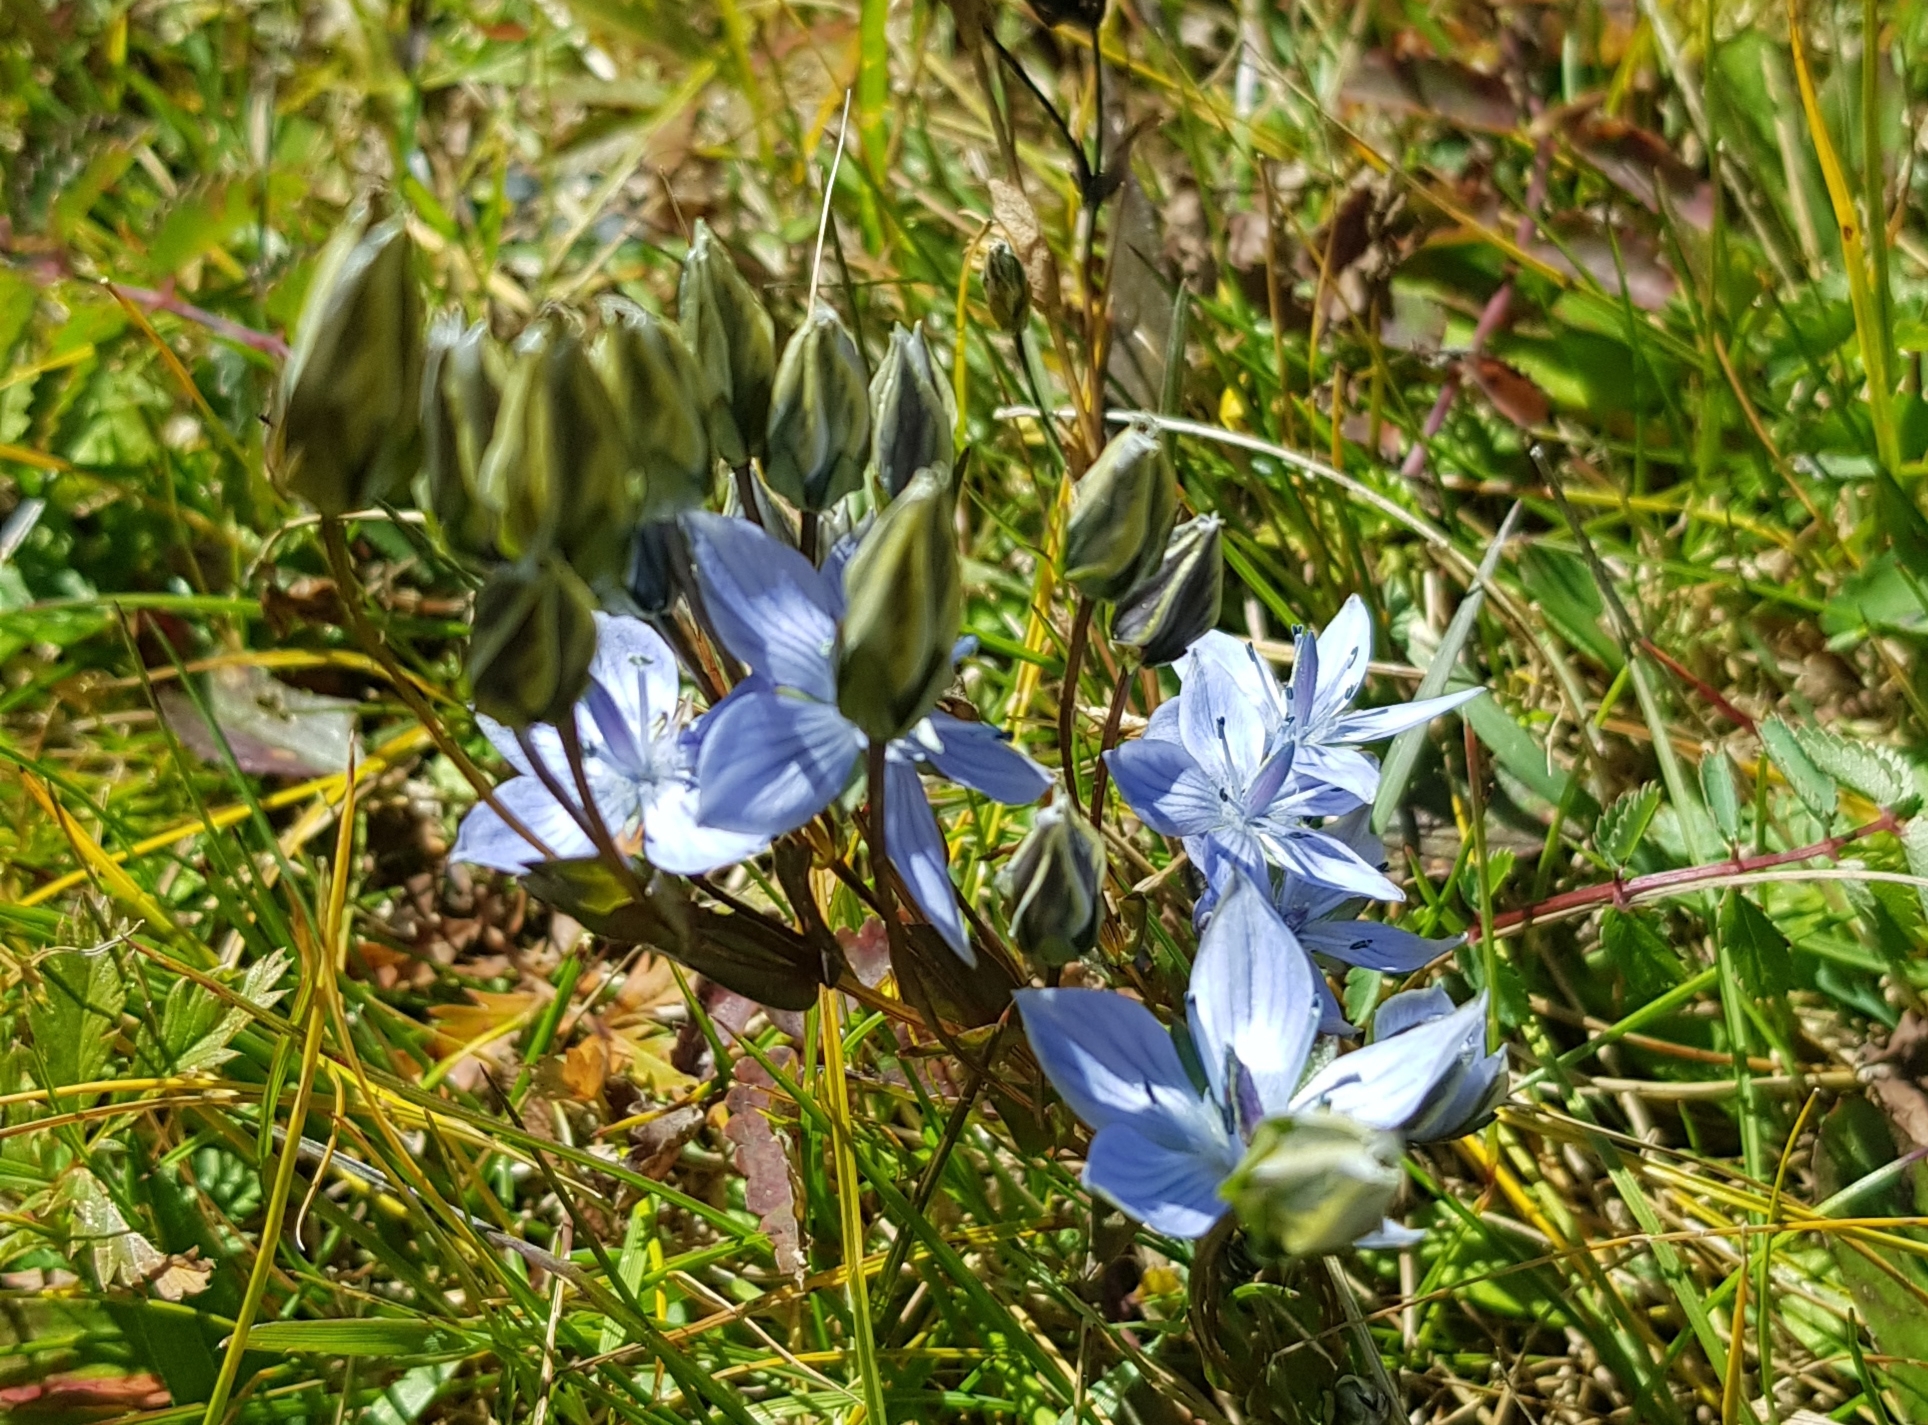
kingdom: Plantae
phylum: Tracheophyta
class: Magnoliopsida
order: Gentianales
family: Gentianaceae
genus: Lomatogonium
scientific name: Lomatogonium carinthiacum
